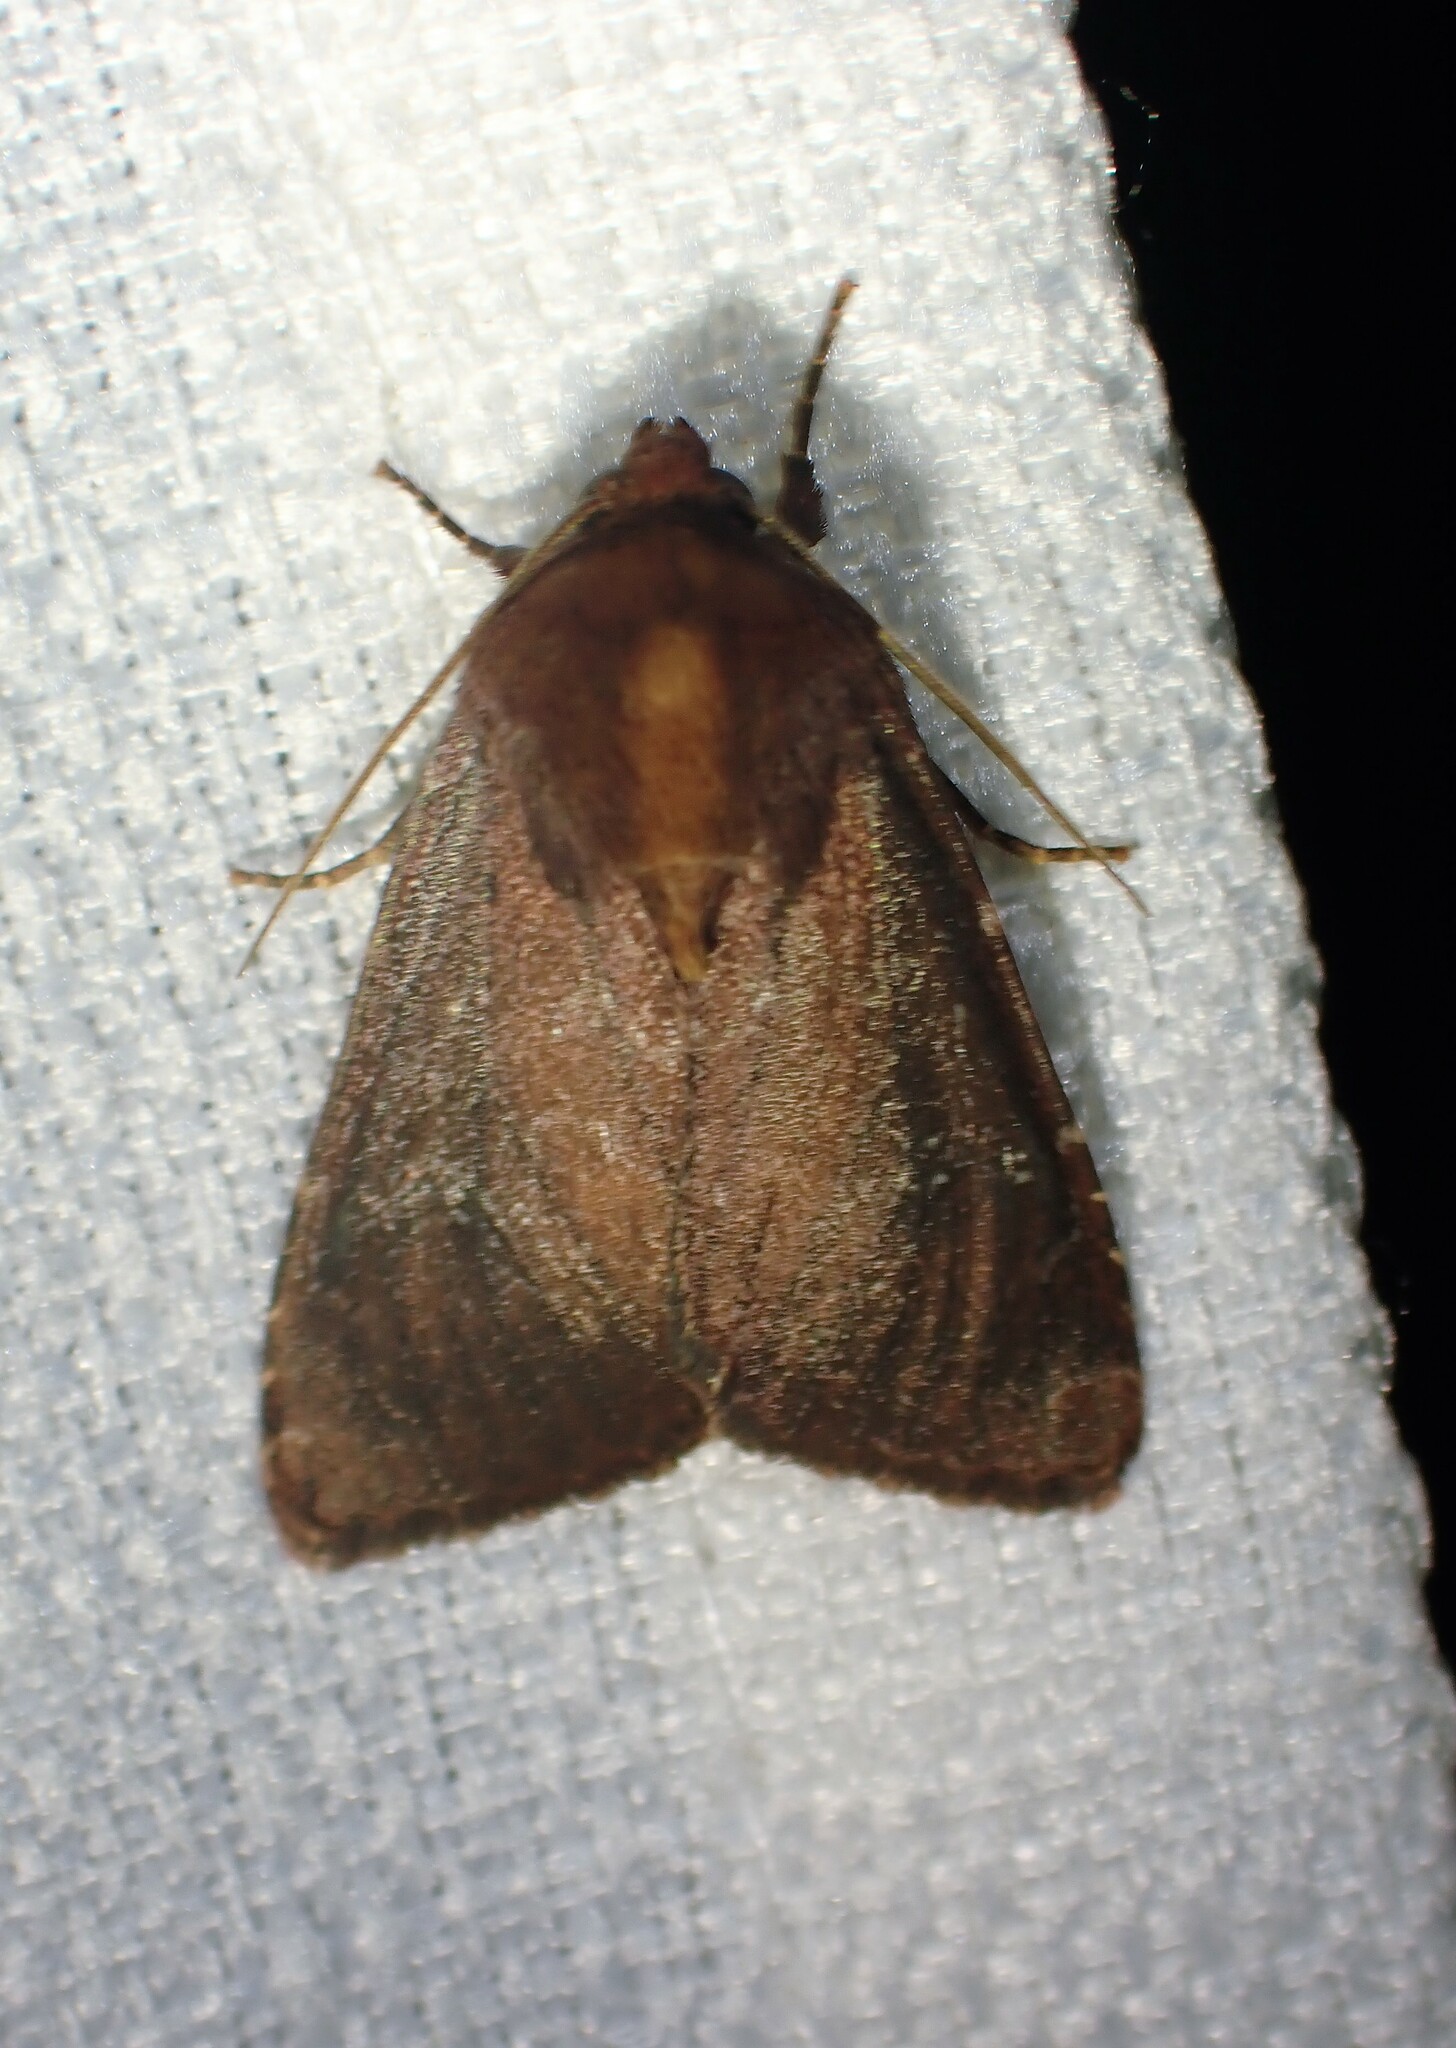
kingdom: Animalia
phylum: Arthropoda
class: Insecta
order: Lepidoptera
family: Noctuidae
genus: Sideridis
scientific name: Sideridis maryx
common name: Maroonwing moth
